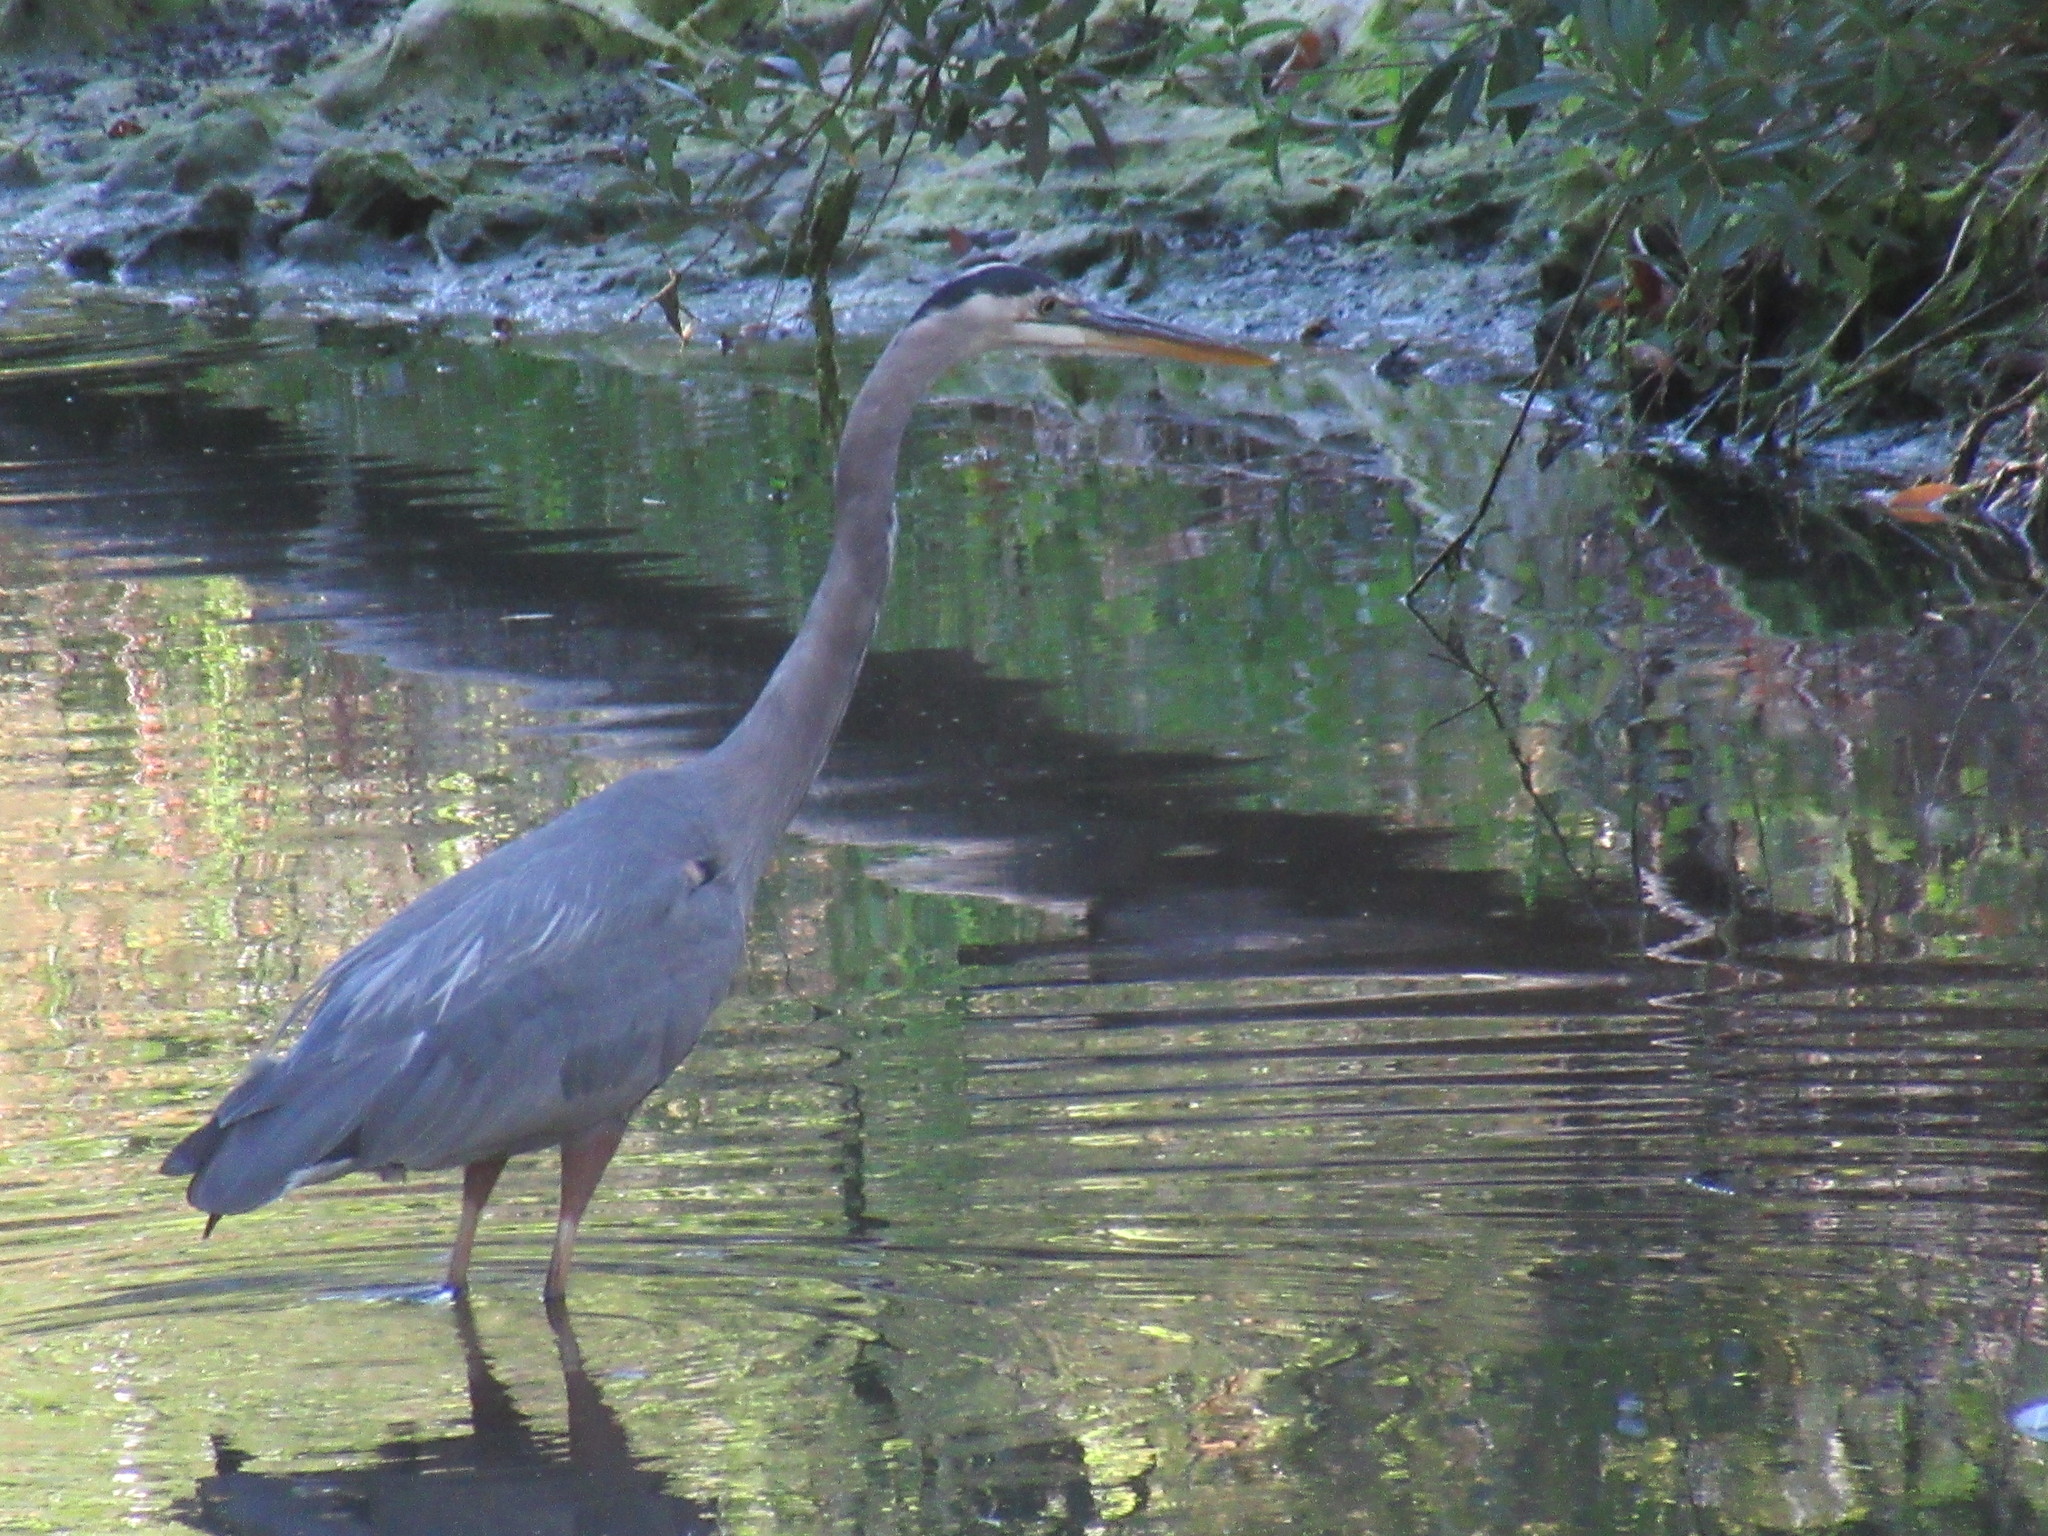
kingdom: Animalia
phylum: Chordata
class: Aves
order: Pelecaniformes
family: Ardeidae
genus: Ardea
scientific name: Ardea herodias
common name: Great blue heron
